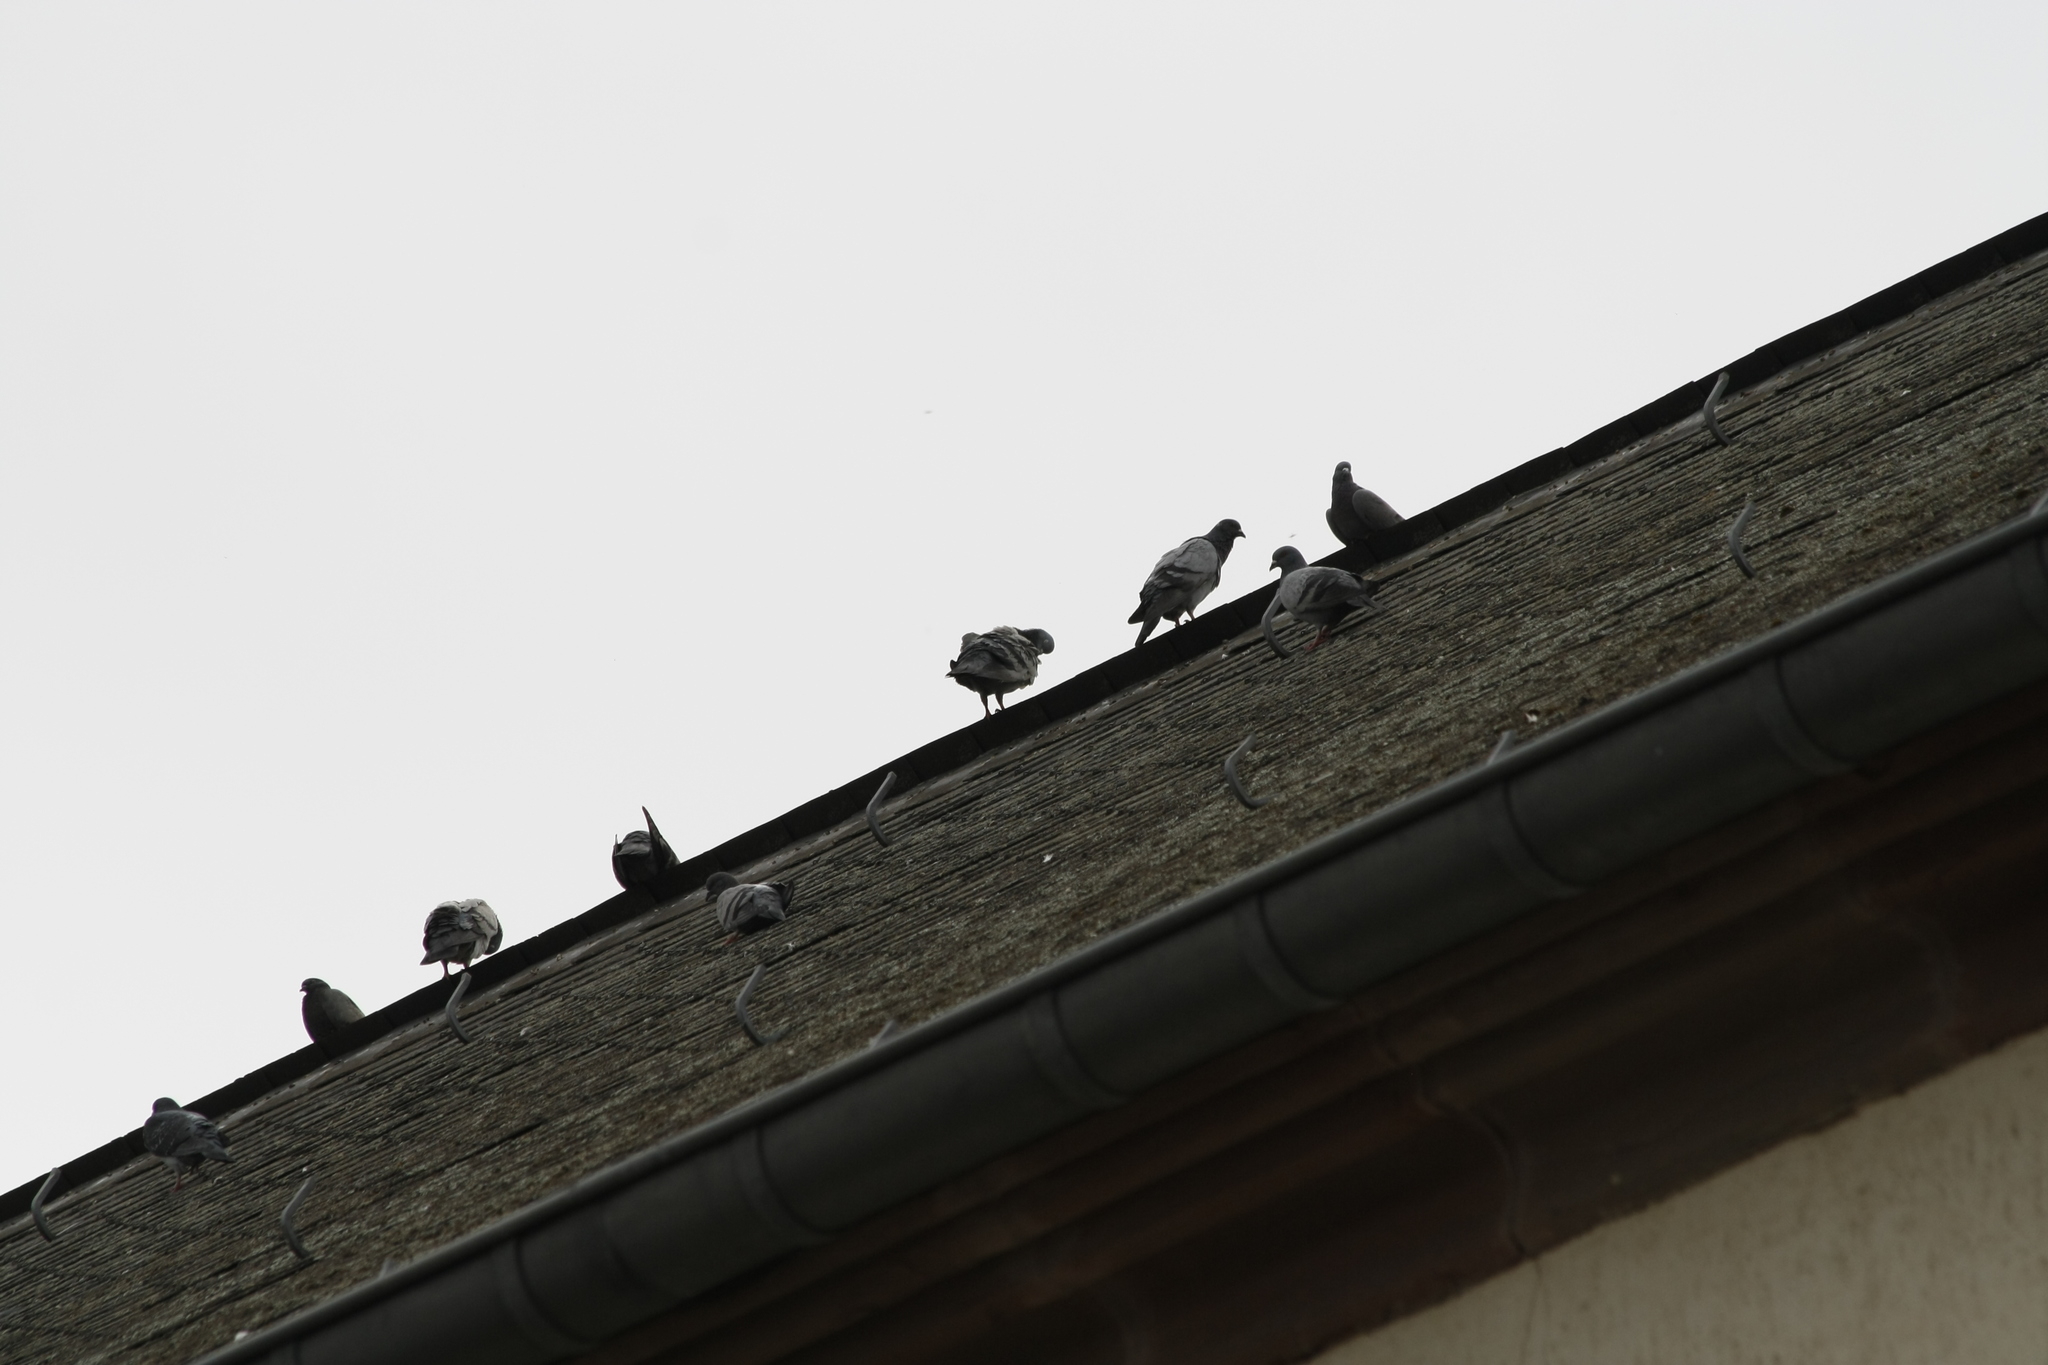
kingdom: Animalia
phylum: Chordata
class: Aves
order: Columbiformes
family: Columbidae
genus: Columba
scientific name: Columba livia
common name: Rock pigeon
